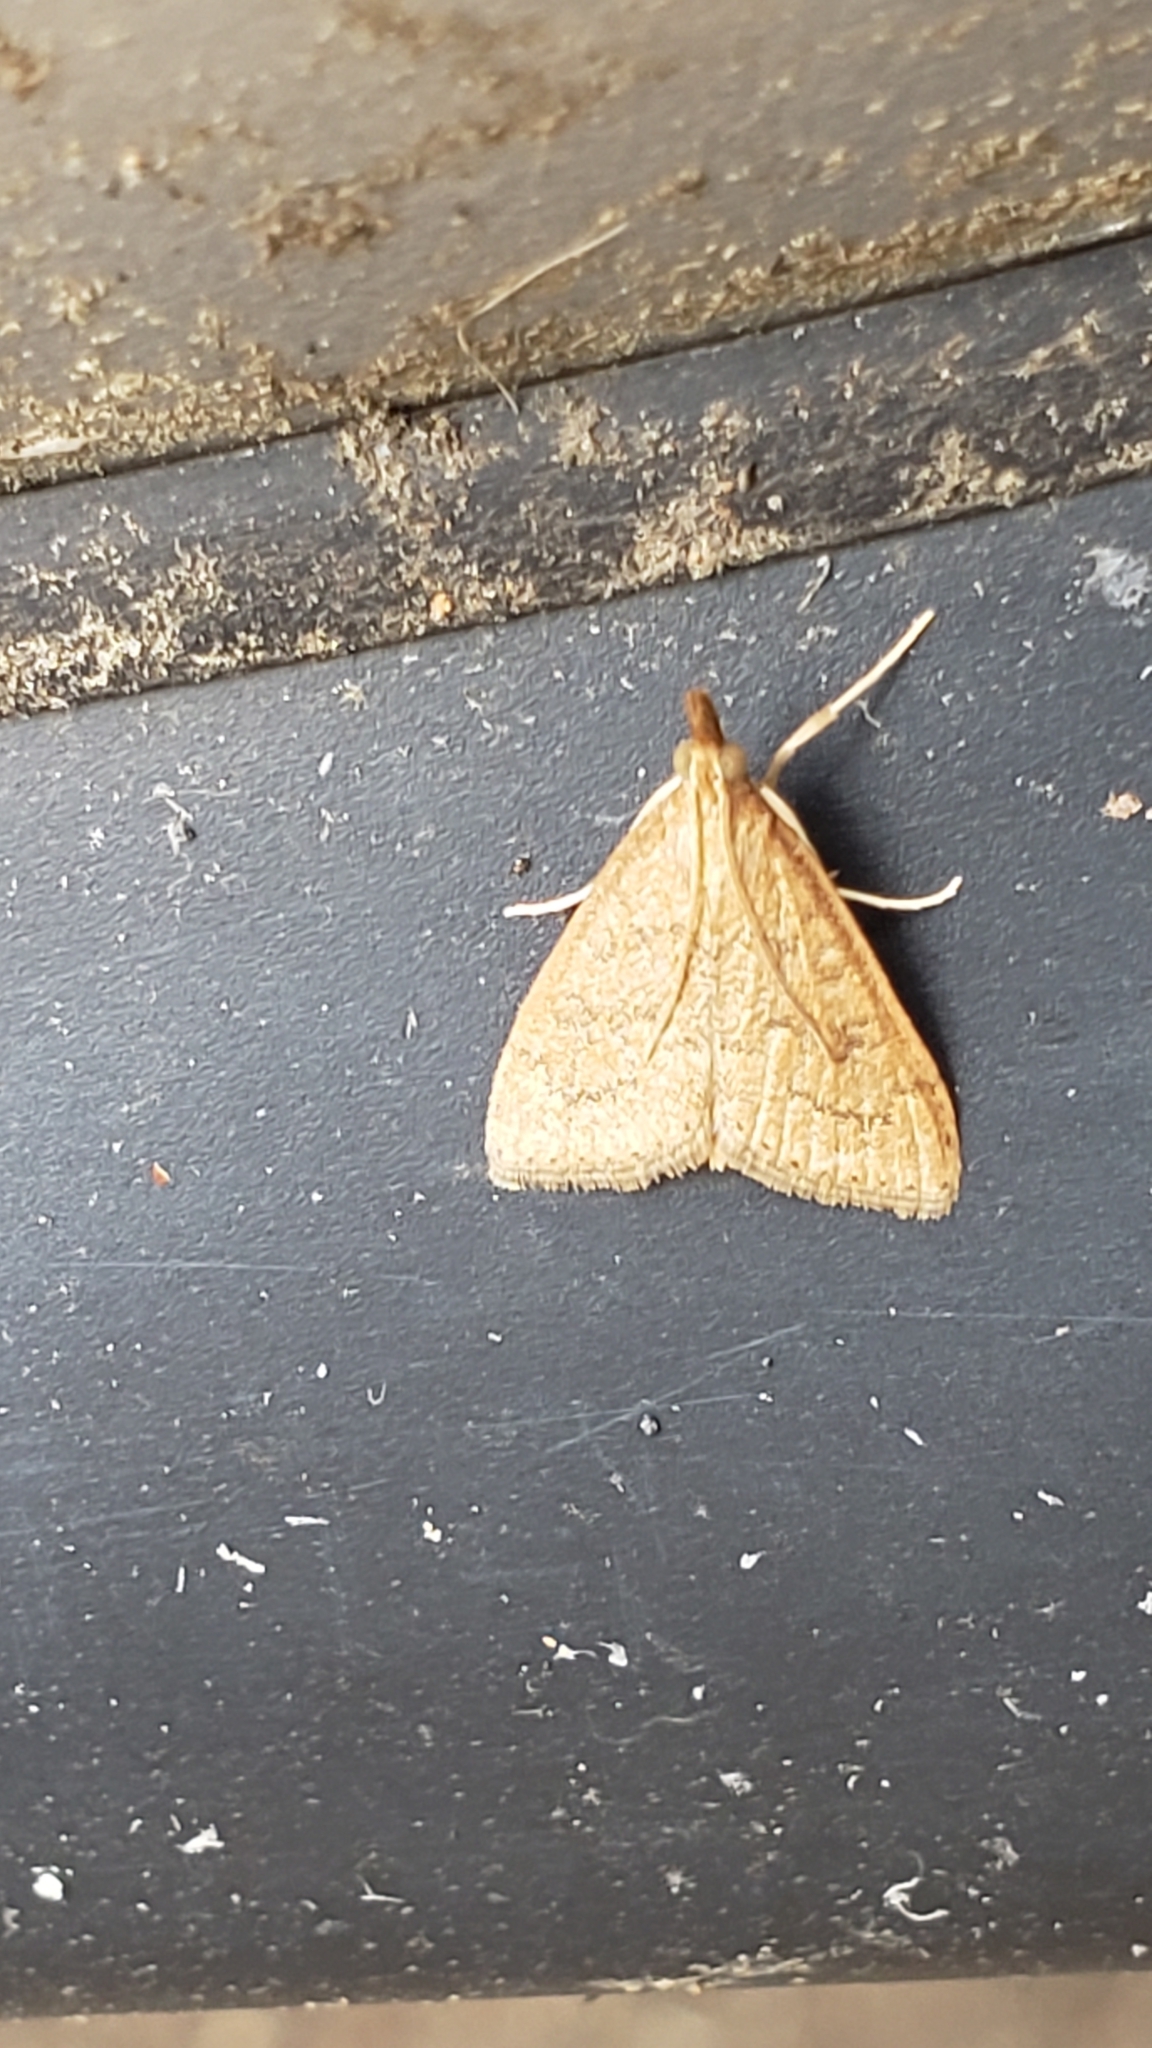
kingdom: Animalia
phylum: Arthropoda
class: Insecta
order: Lepidoptera
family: Crambidae
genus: Udea
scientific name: Udea rubigalis
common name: Celery leaftier moth
